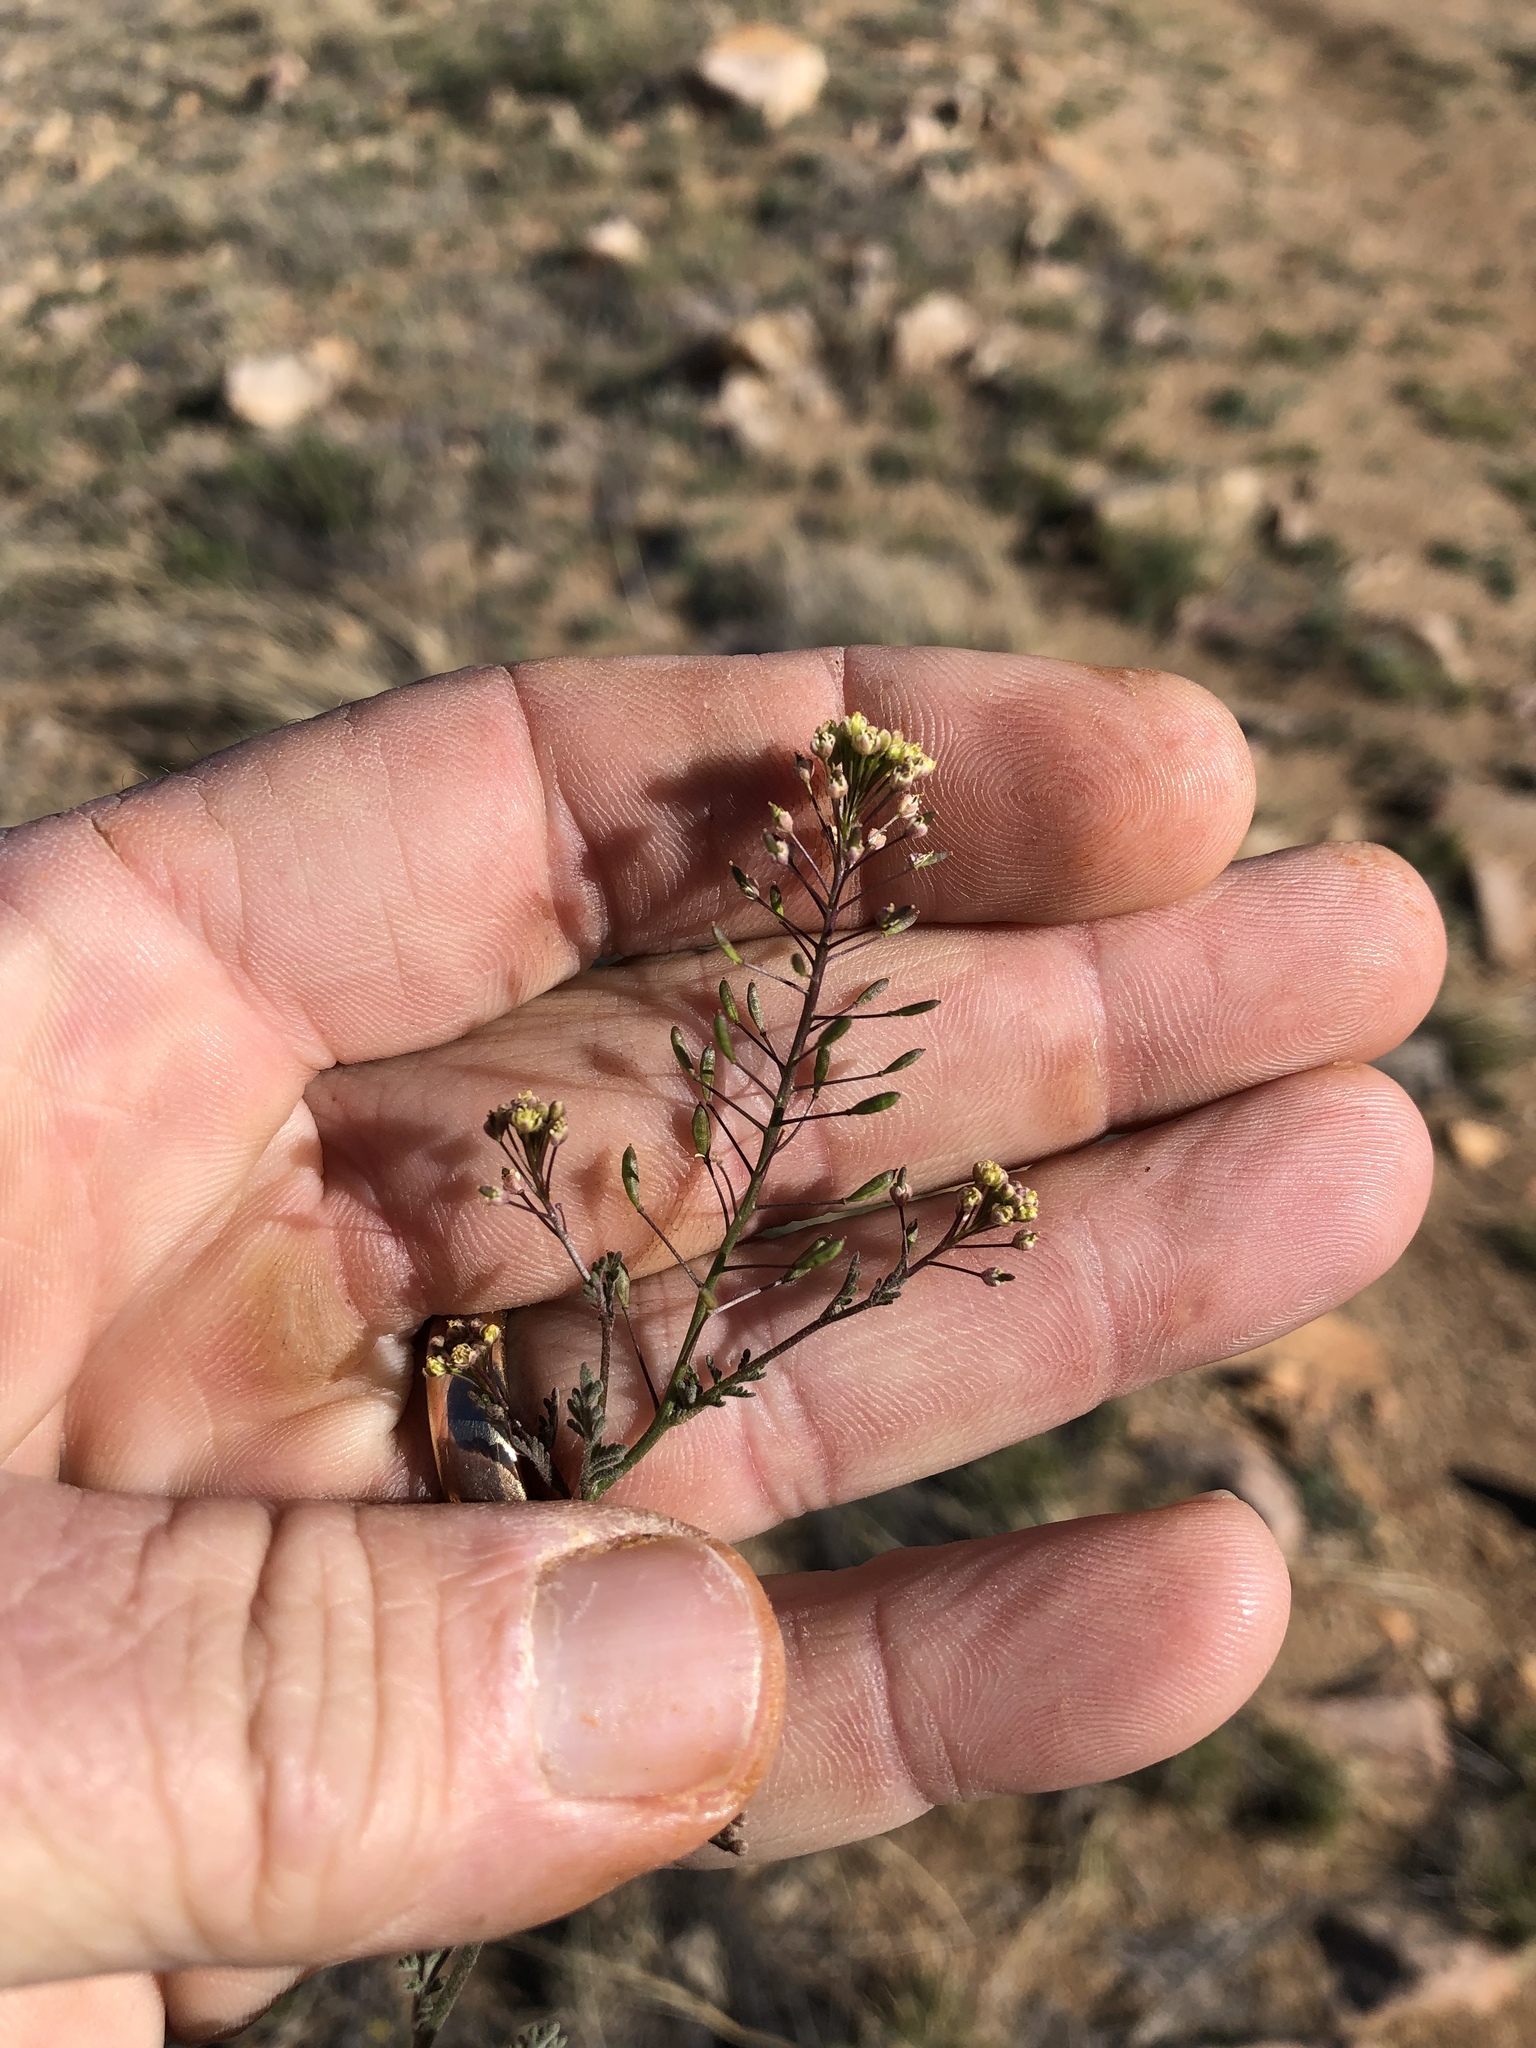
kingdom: Plantae
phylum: Tracheophyta
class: Magnoliopsida
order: Brassicales
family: Brassicaceae
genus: Descurainia
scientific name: Descurainia pinnata
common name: Western tansy mustard
